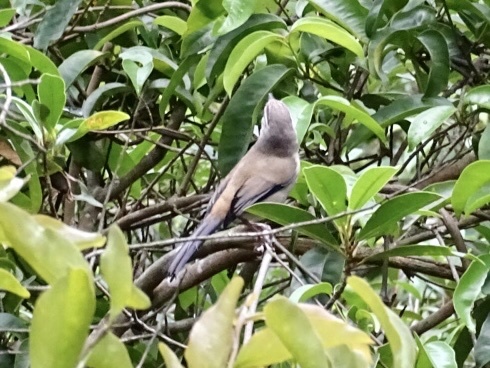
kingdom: Animalia
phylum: Chordata
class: Aves
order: Passeriformes
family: Leiothrichidae
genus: Minla
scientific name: Minla cyanouroptera
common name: Blue-winged minla
